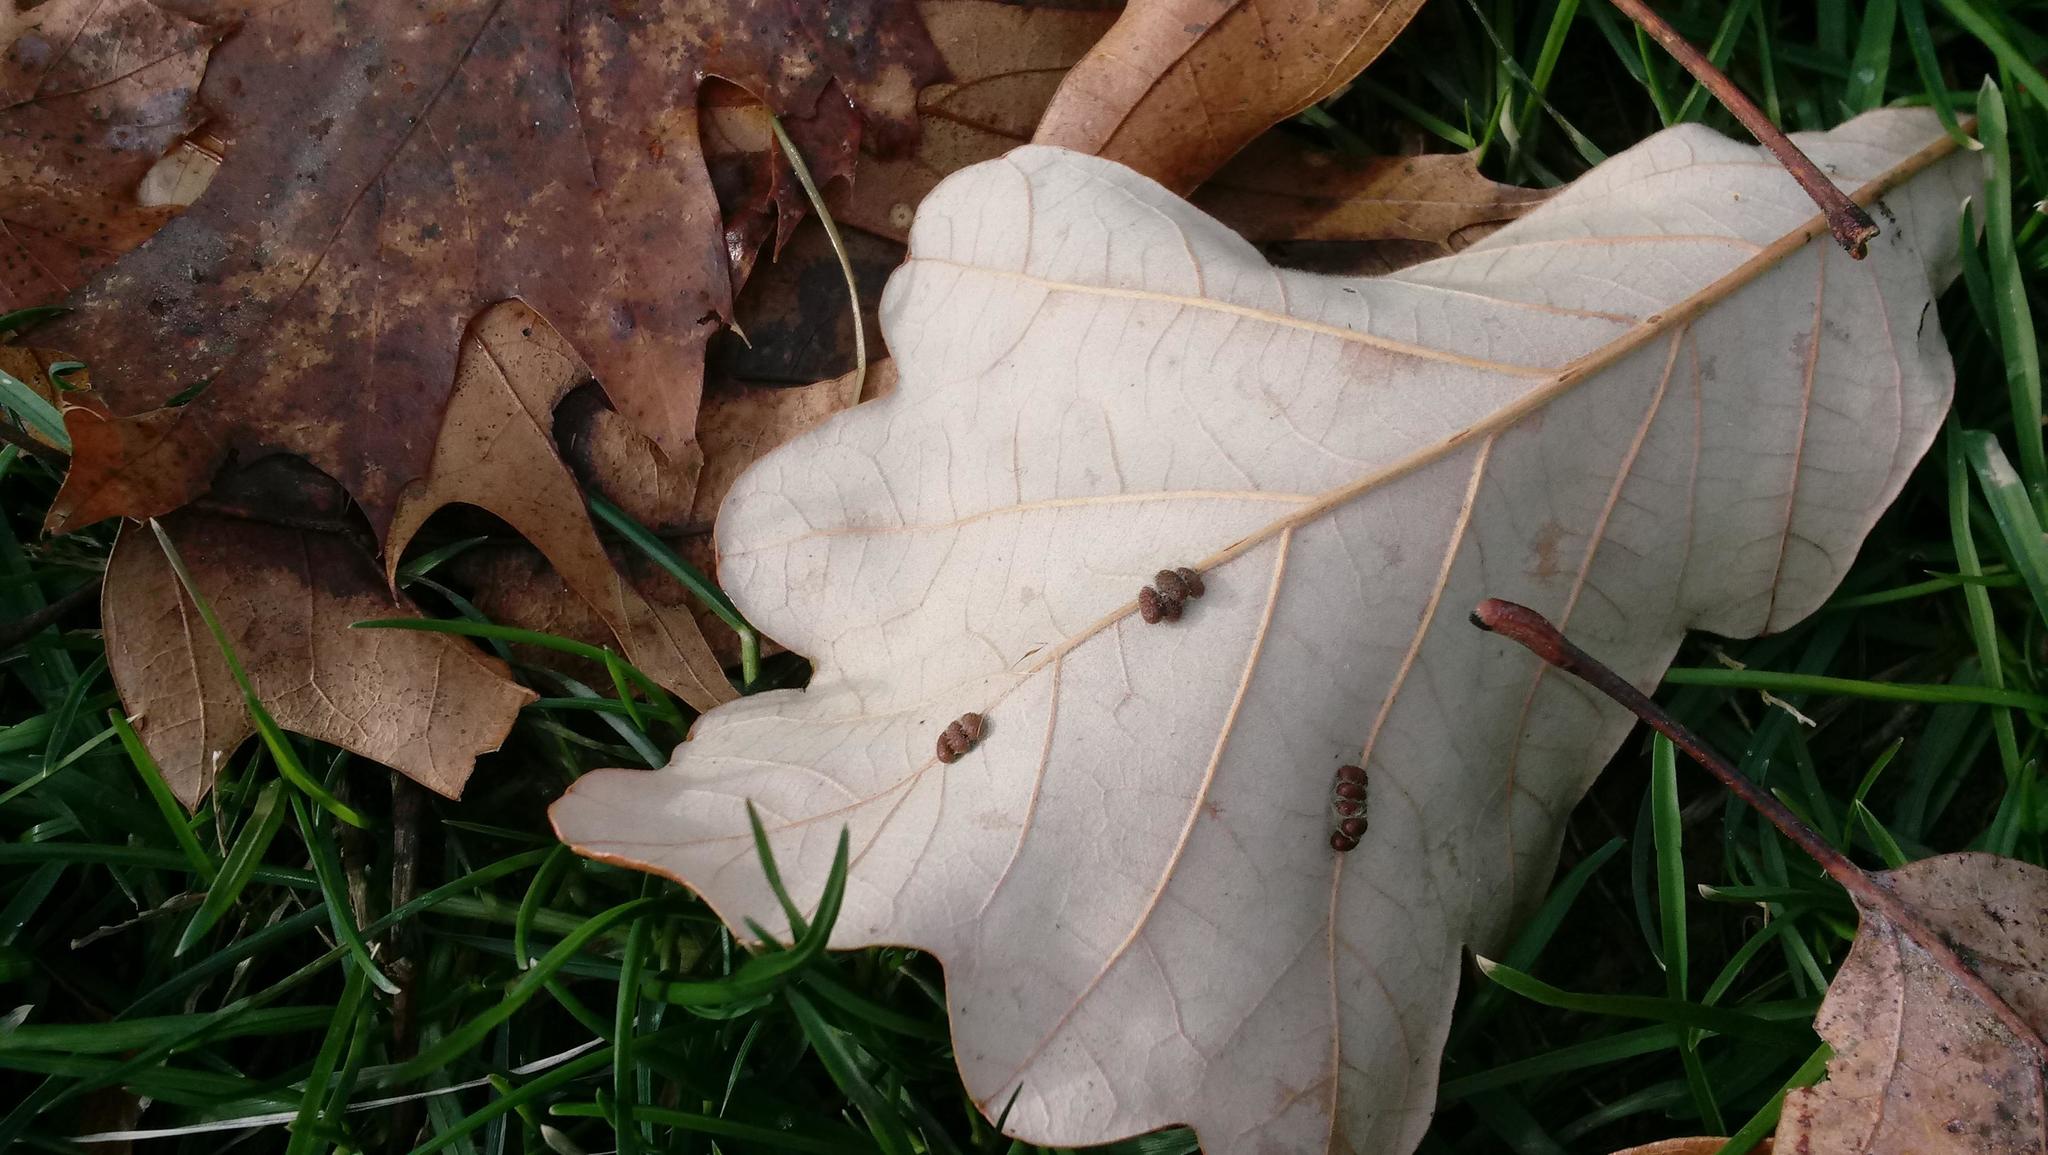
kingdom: Animalia
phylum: Arthropoda
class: Insecta
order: Hymenoptera
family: Cynipidae
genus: Andricus
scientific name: Andricus Druon ignotum
